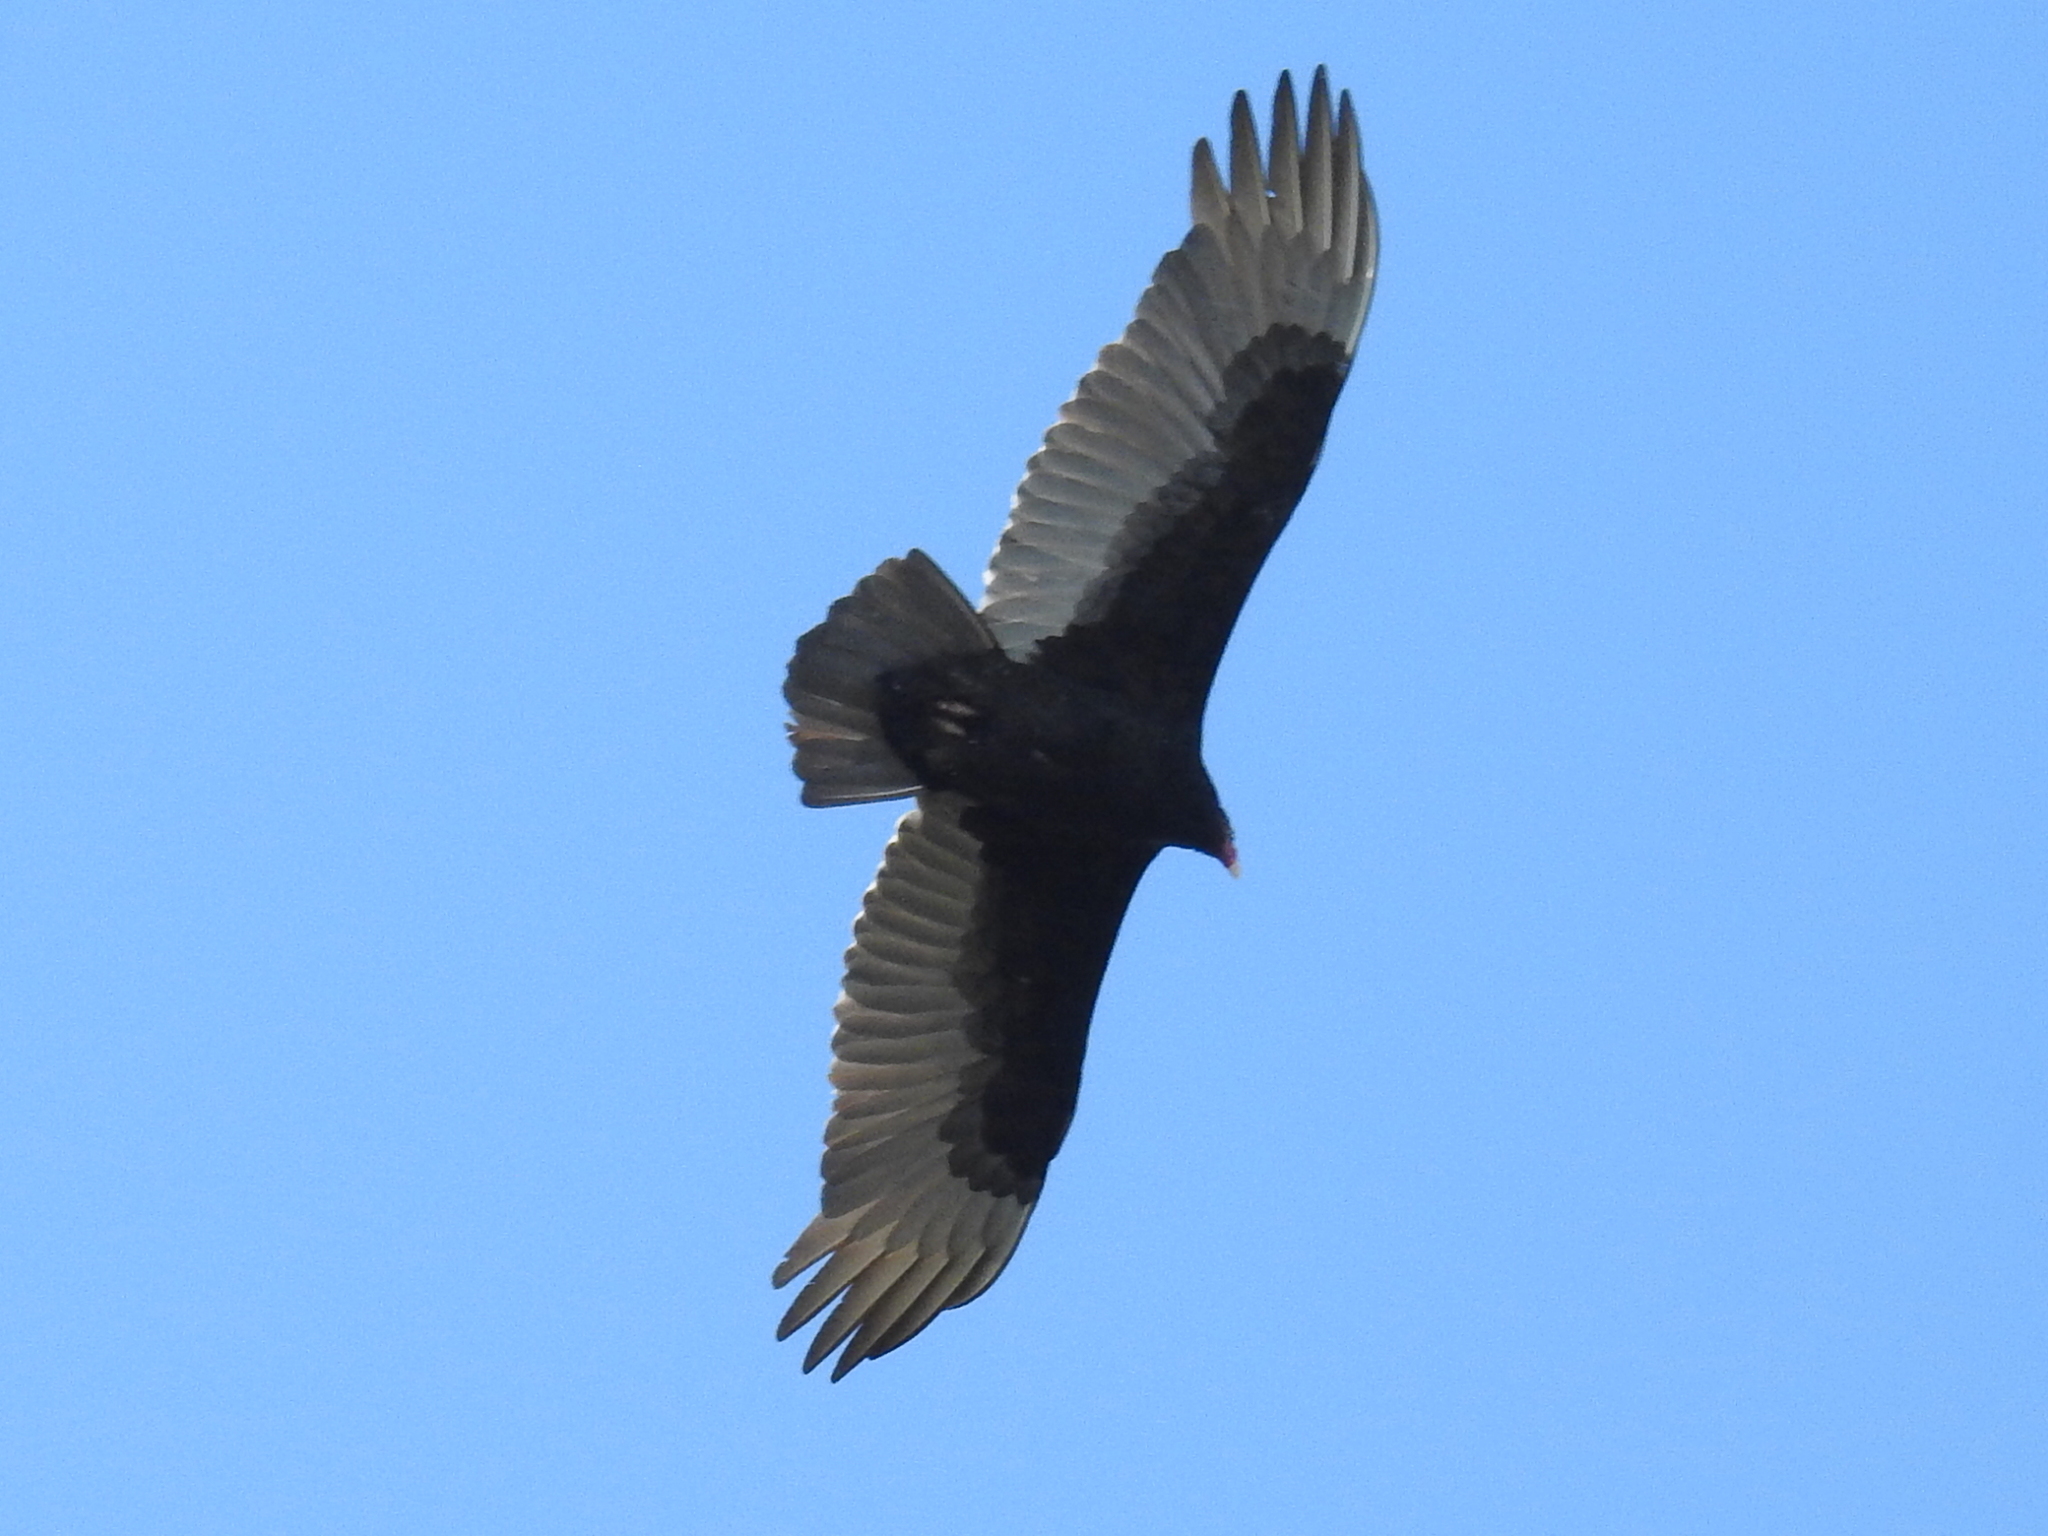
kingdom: Animalia
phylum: Chordata
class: Aves
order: Accipitriformes
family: Cathartidae
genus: Cathartes
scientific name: Cathartes aura
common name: Turkey vulture
